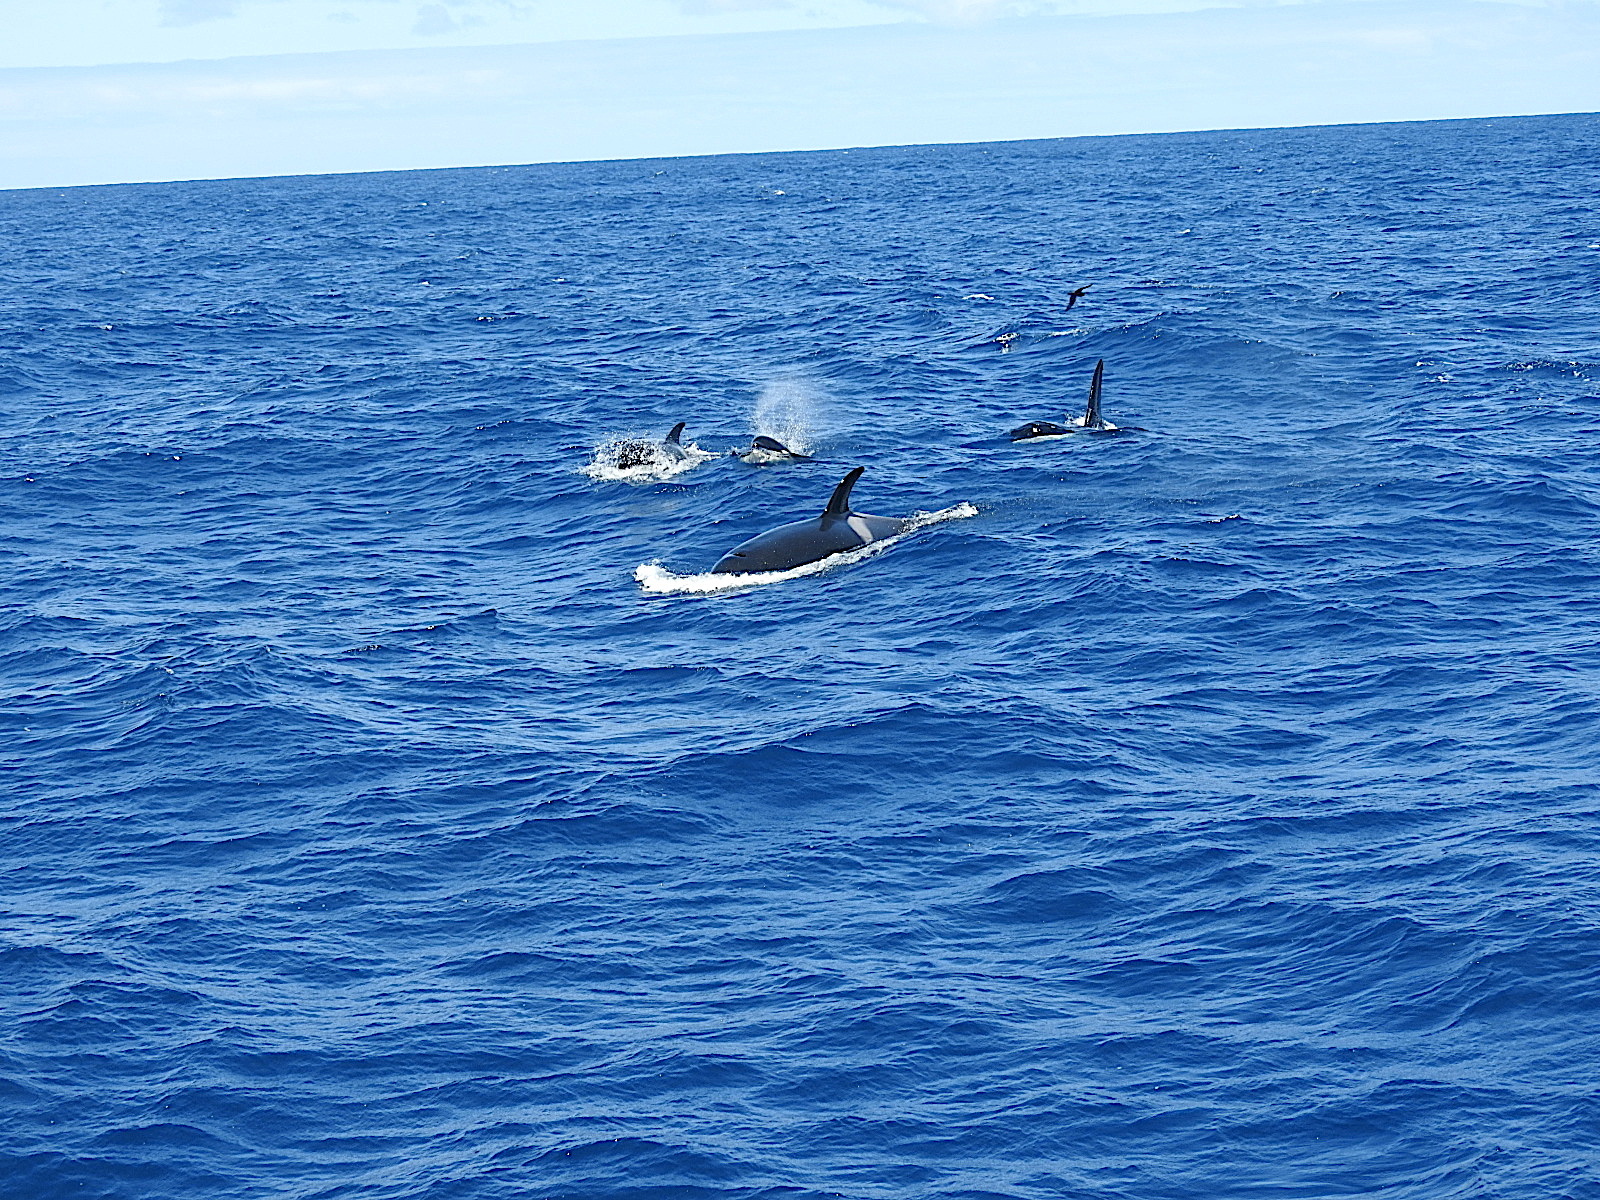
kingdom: Animalia
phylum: Chordata
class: Mammalia
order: Cetacea
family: Delphinidae
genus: Orcinus
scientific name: Orcinus orca
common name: Killer whale
